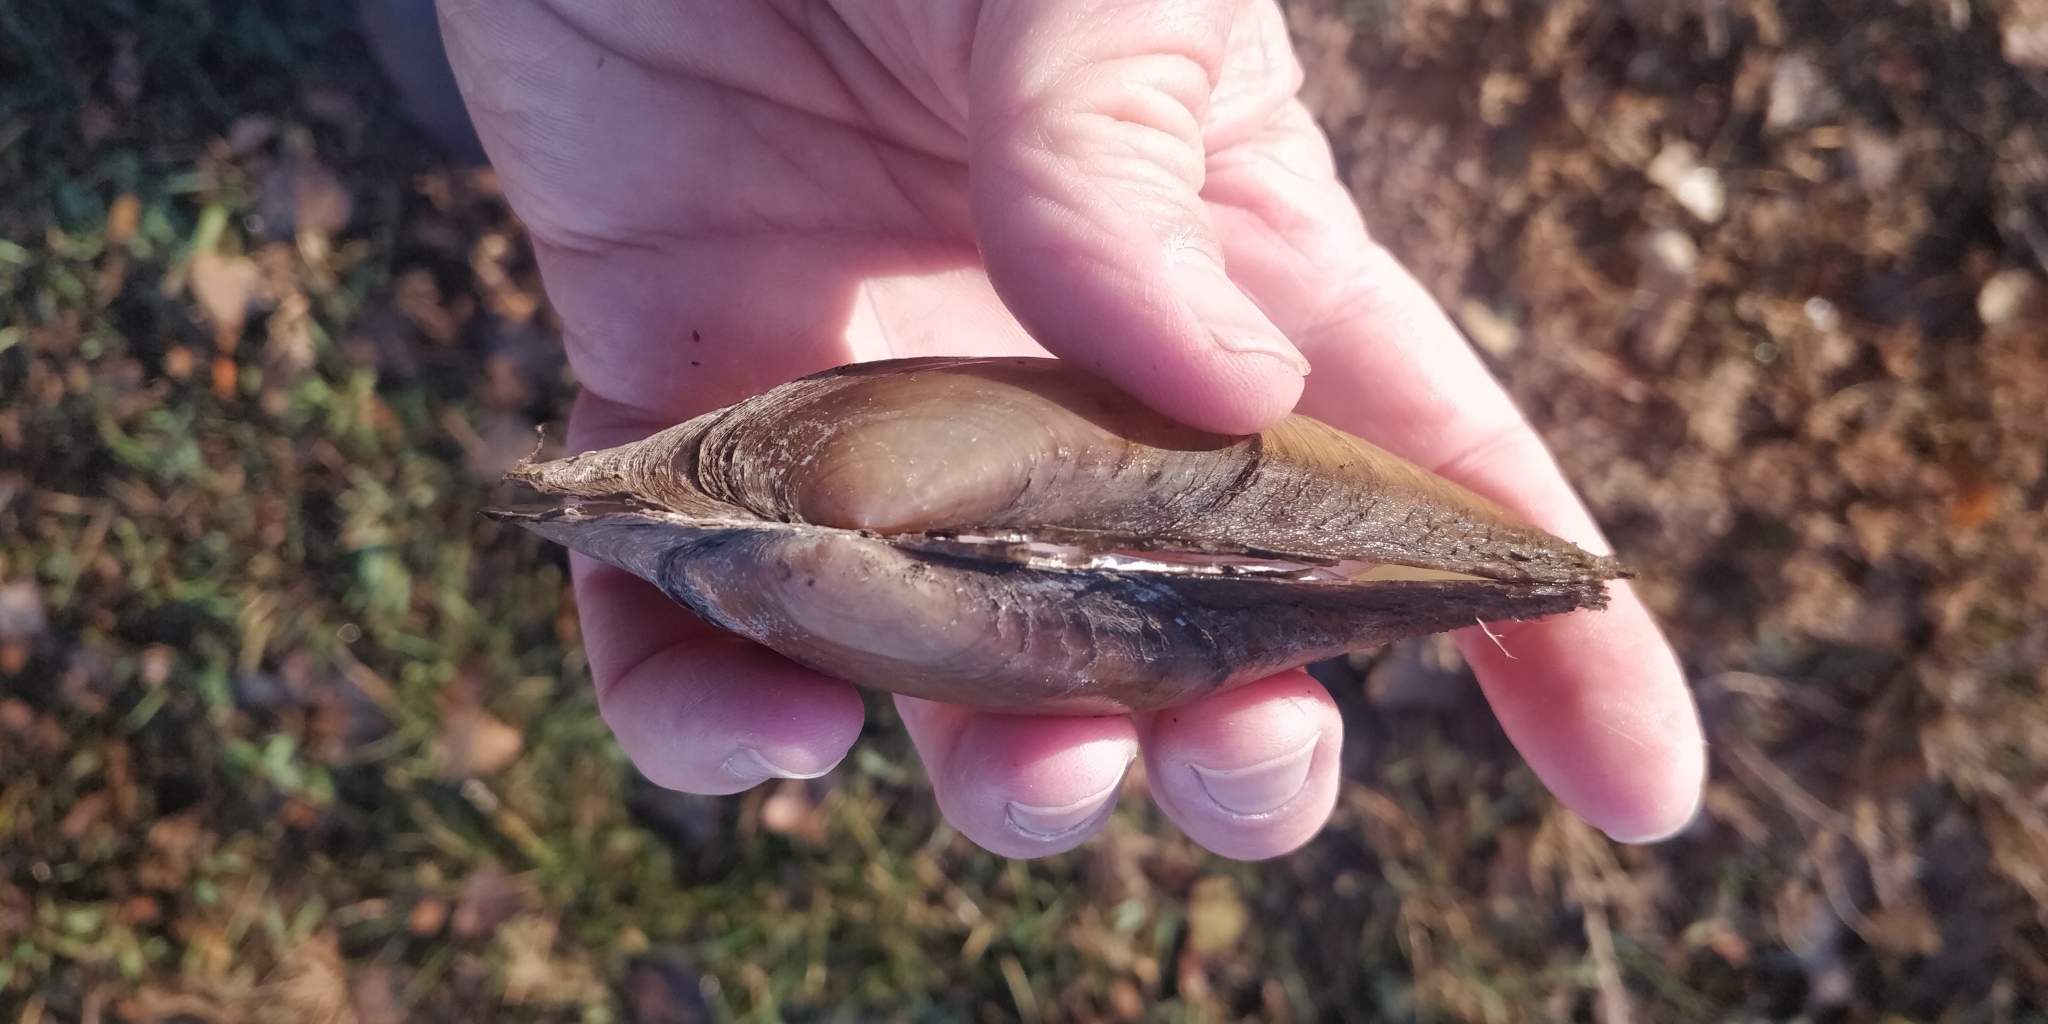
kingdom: Animalia
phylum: Mollusca
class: Bivalvia
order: Unionida
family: Unionidae
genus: Potamilus
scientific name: Potamilus fragilis
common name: Fragile papershell
